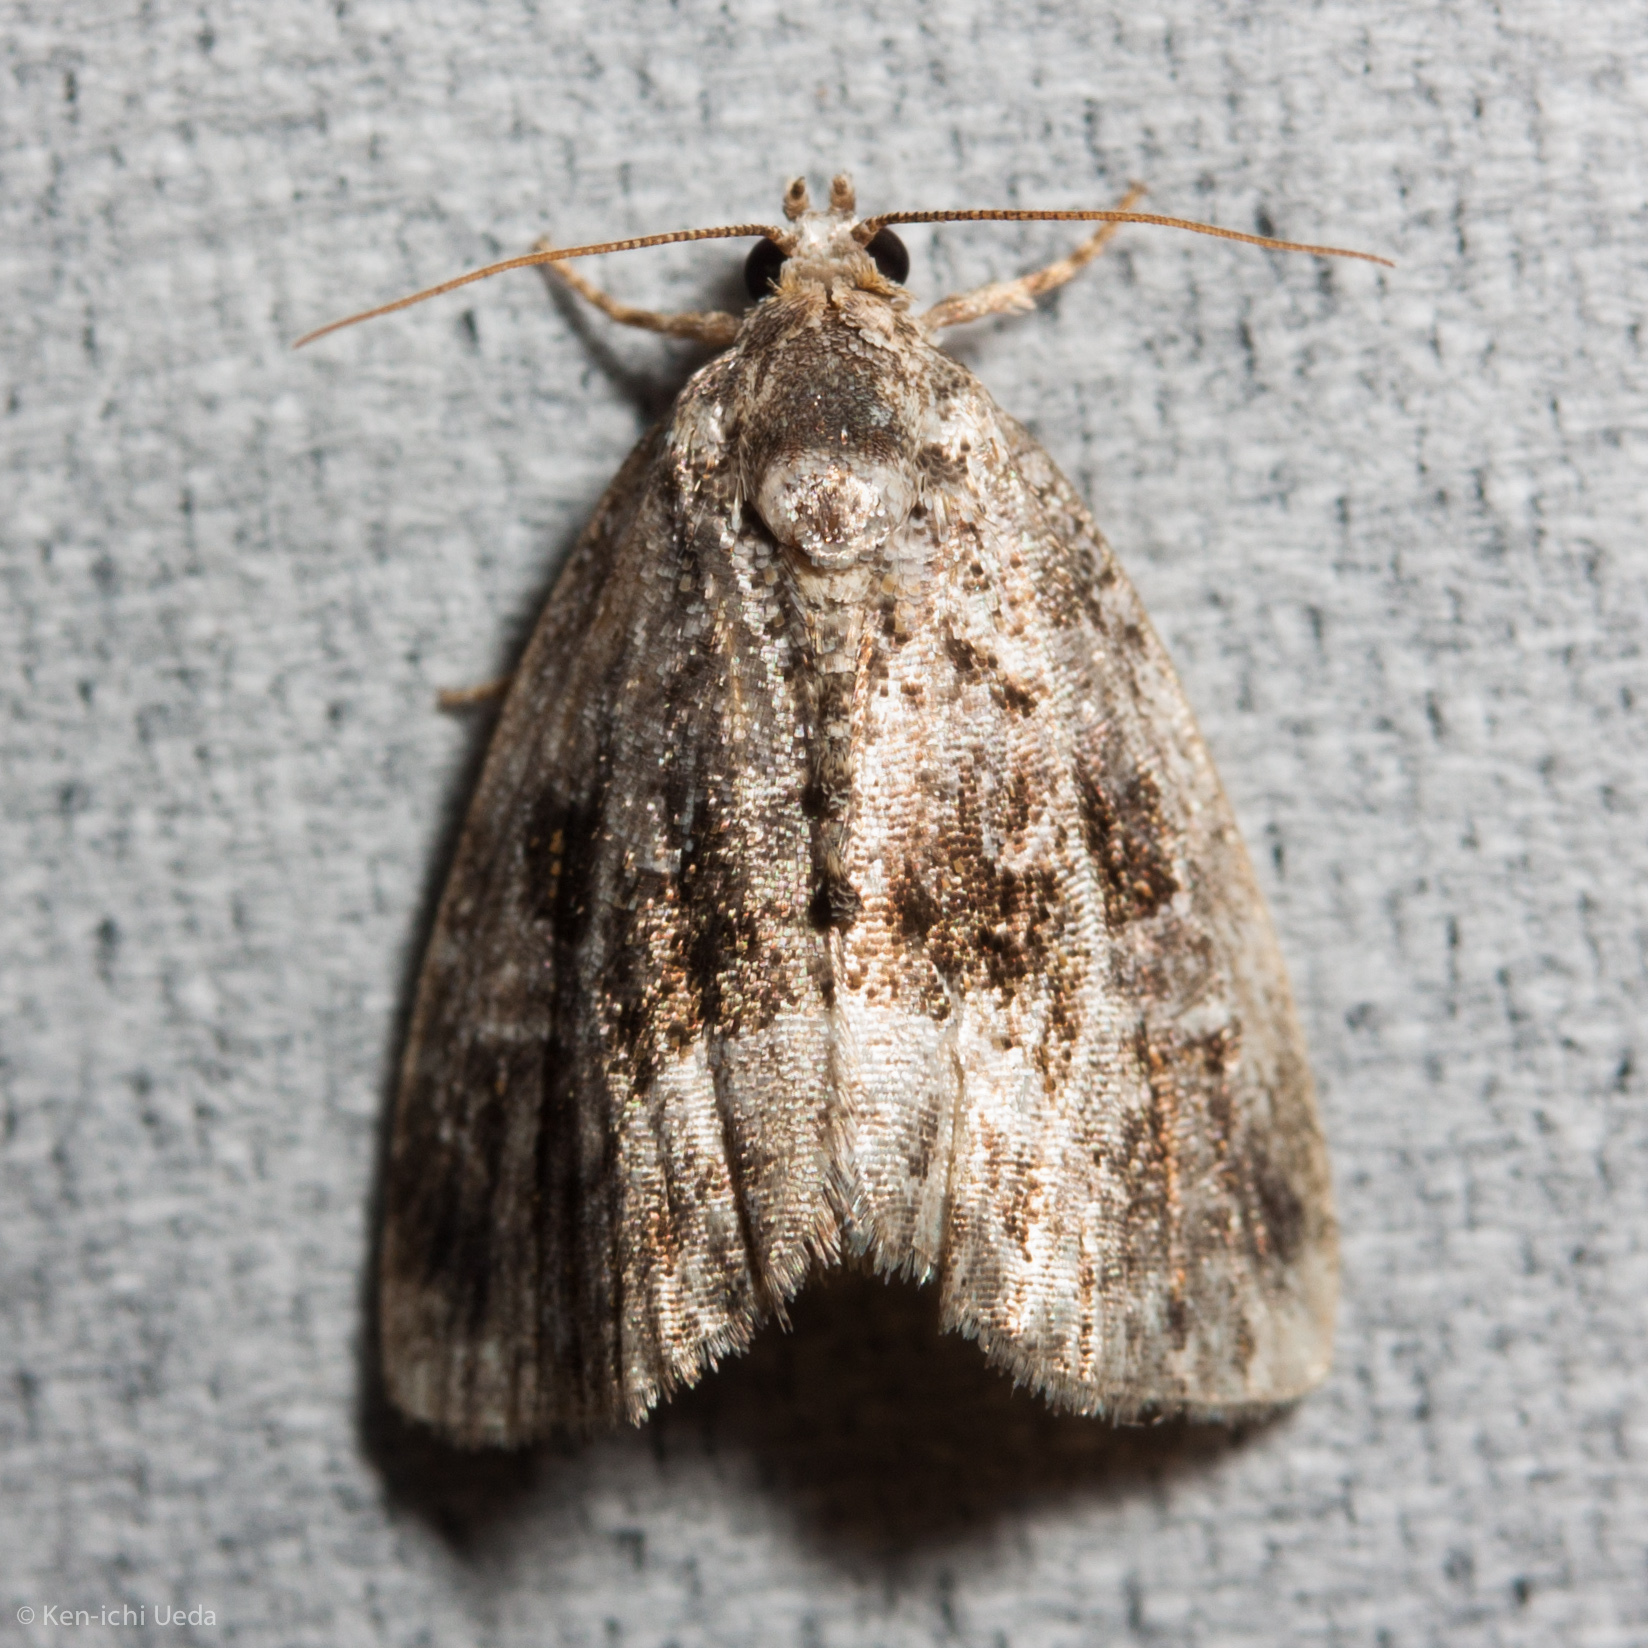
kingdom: Animalia
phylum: Arthropoda
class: Insecta
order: Lepidoptera
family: Noctuidae
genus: Protodeltote
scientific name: Protodeltote muscosula
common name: Large mossy glyph
